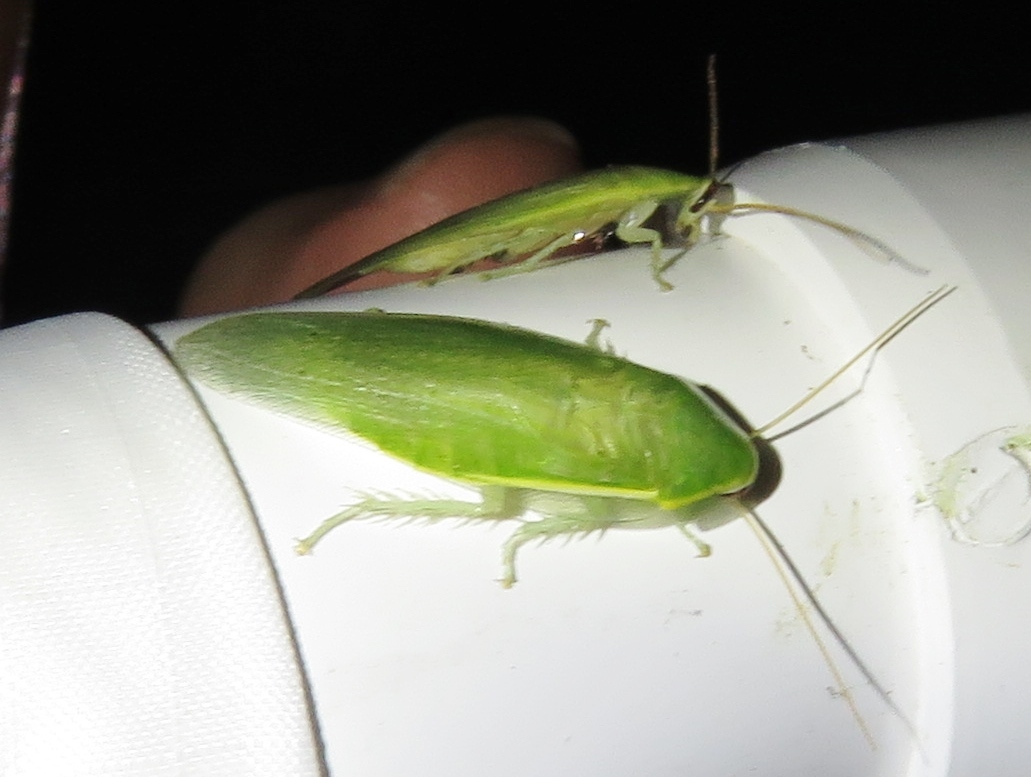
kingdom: Animalia
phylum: Arthropoda
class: Insecta
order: Blattodea
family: Blaberidae
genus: Panchlora
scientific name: Panchlora nivea
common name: Cuban cockroach
